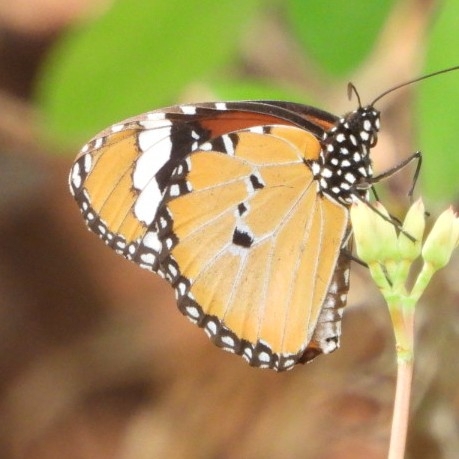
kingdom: Animalia
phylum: Arthropoda
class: Insecta
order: Lepidoptera
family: Nymphalidae
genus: Danaus
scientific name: Danaus chrysippus
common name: Plain tiger
